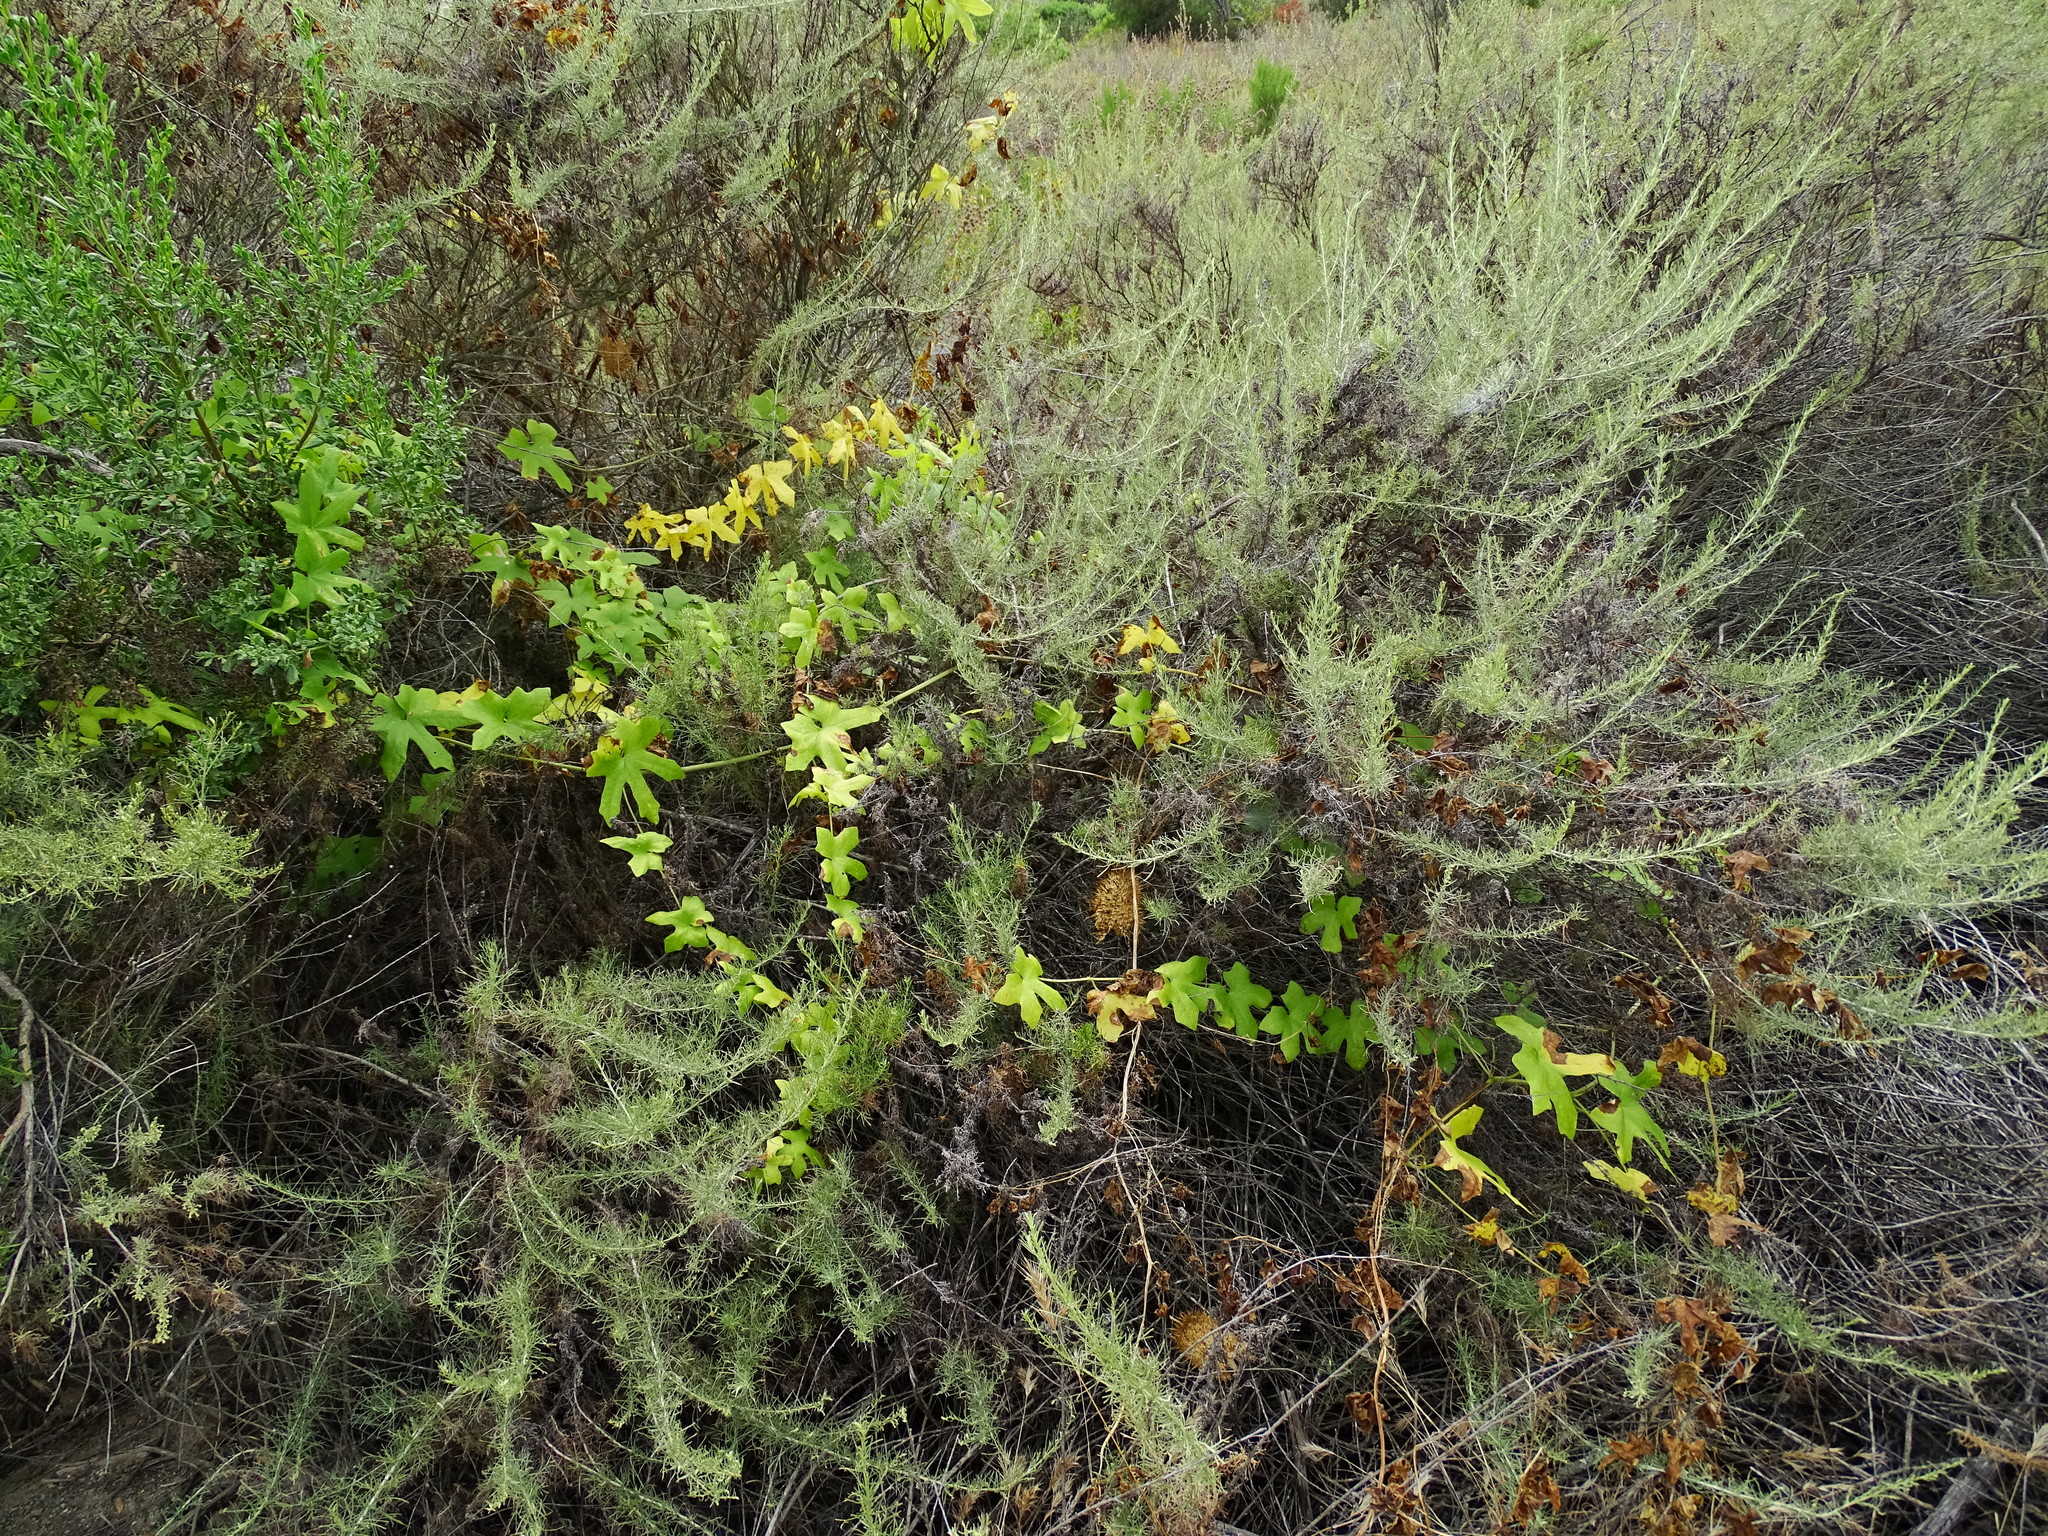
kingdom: Plantae
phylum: Tracheophyta
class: Magnoliopsida
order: Cucurbitales
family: Cucurbitaceae
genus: Marah
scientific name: Marah macrocarpa
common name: Cucamonga manroot
